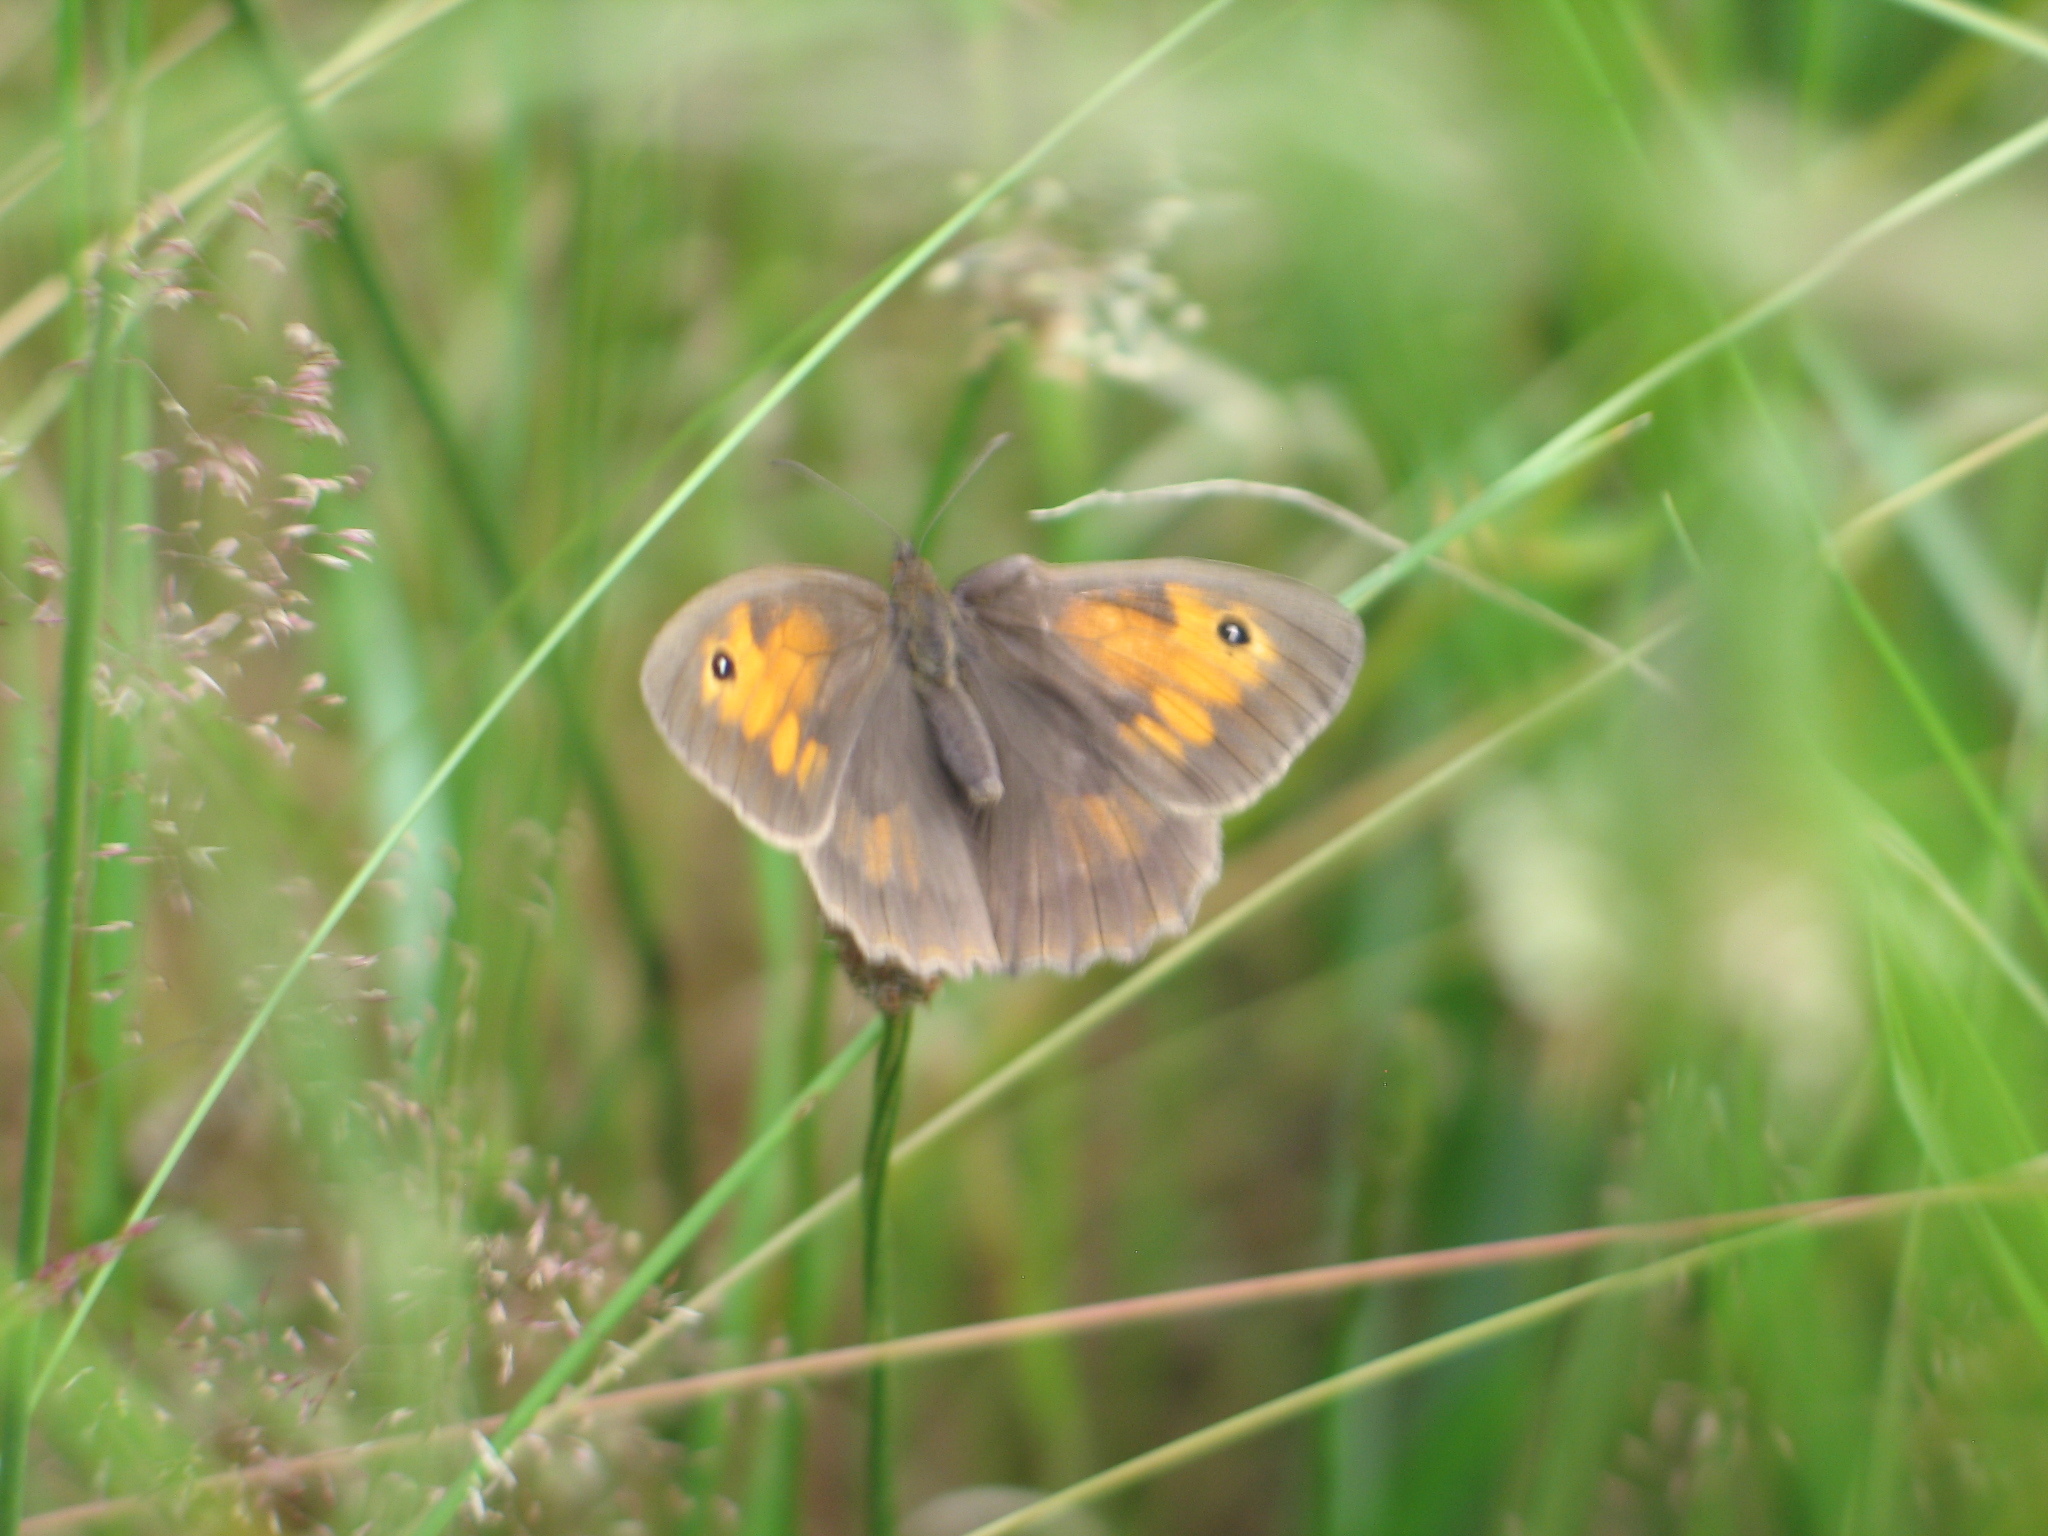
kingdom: Animalia
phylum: Arthropoda
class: Insecta
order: Lepidoptera
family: Nymphalidae
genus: Maniola
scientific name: Maniola jurtina
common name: Meadow brown
